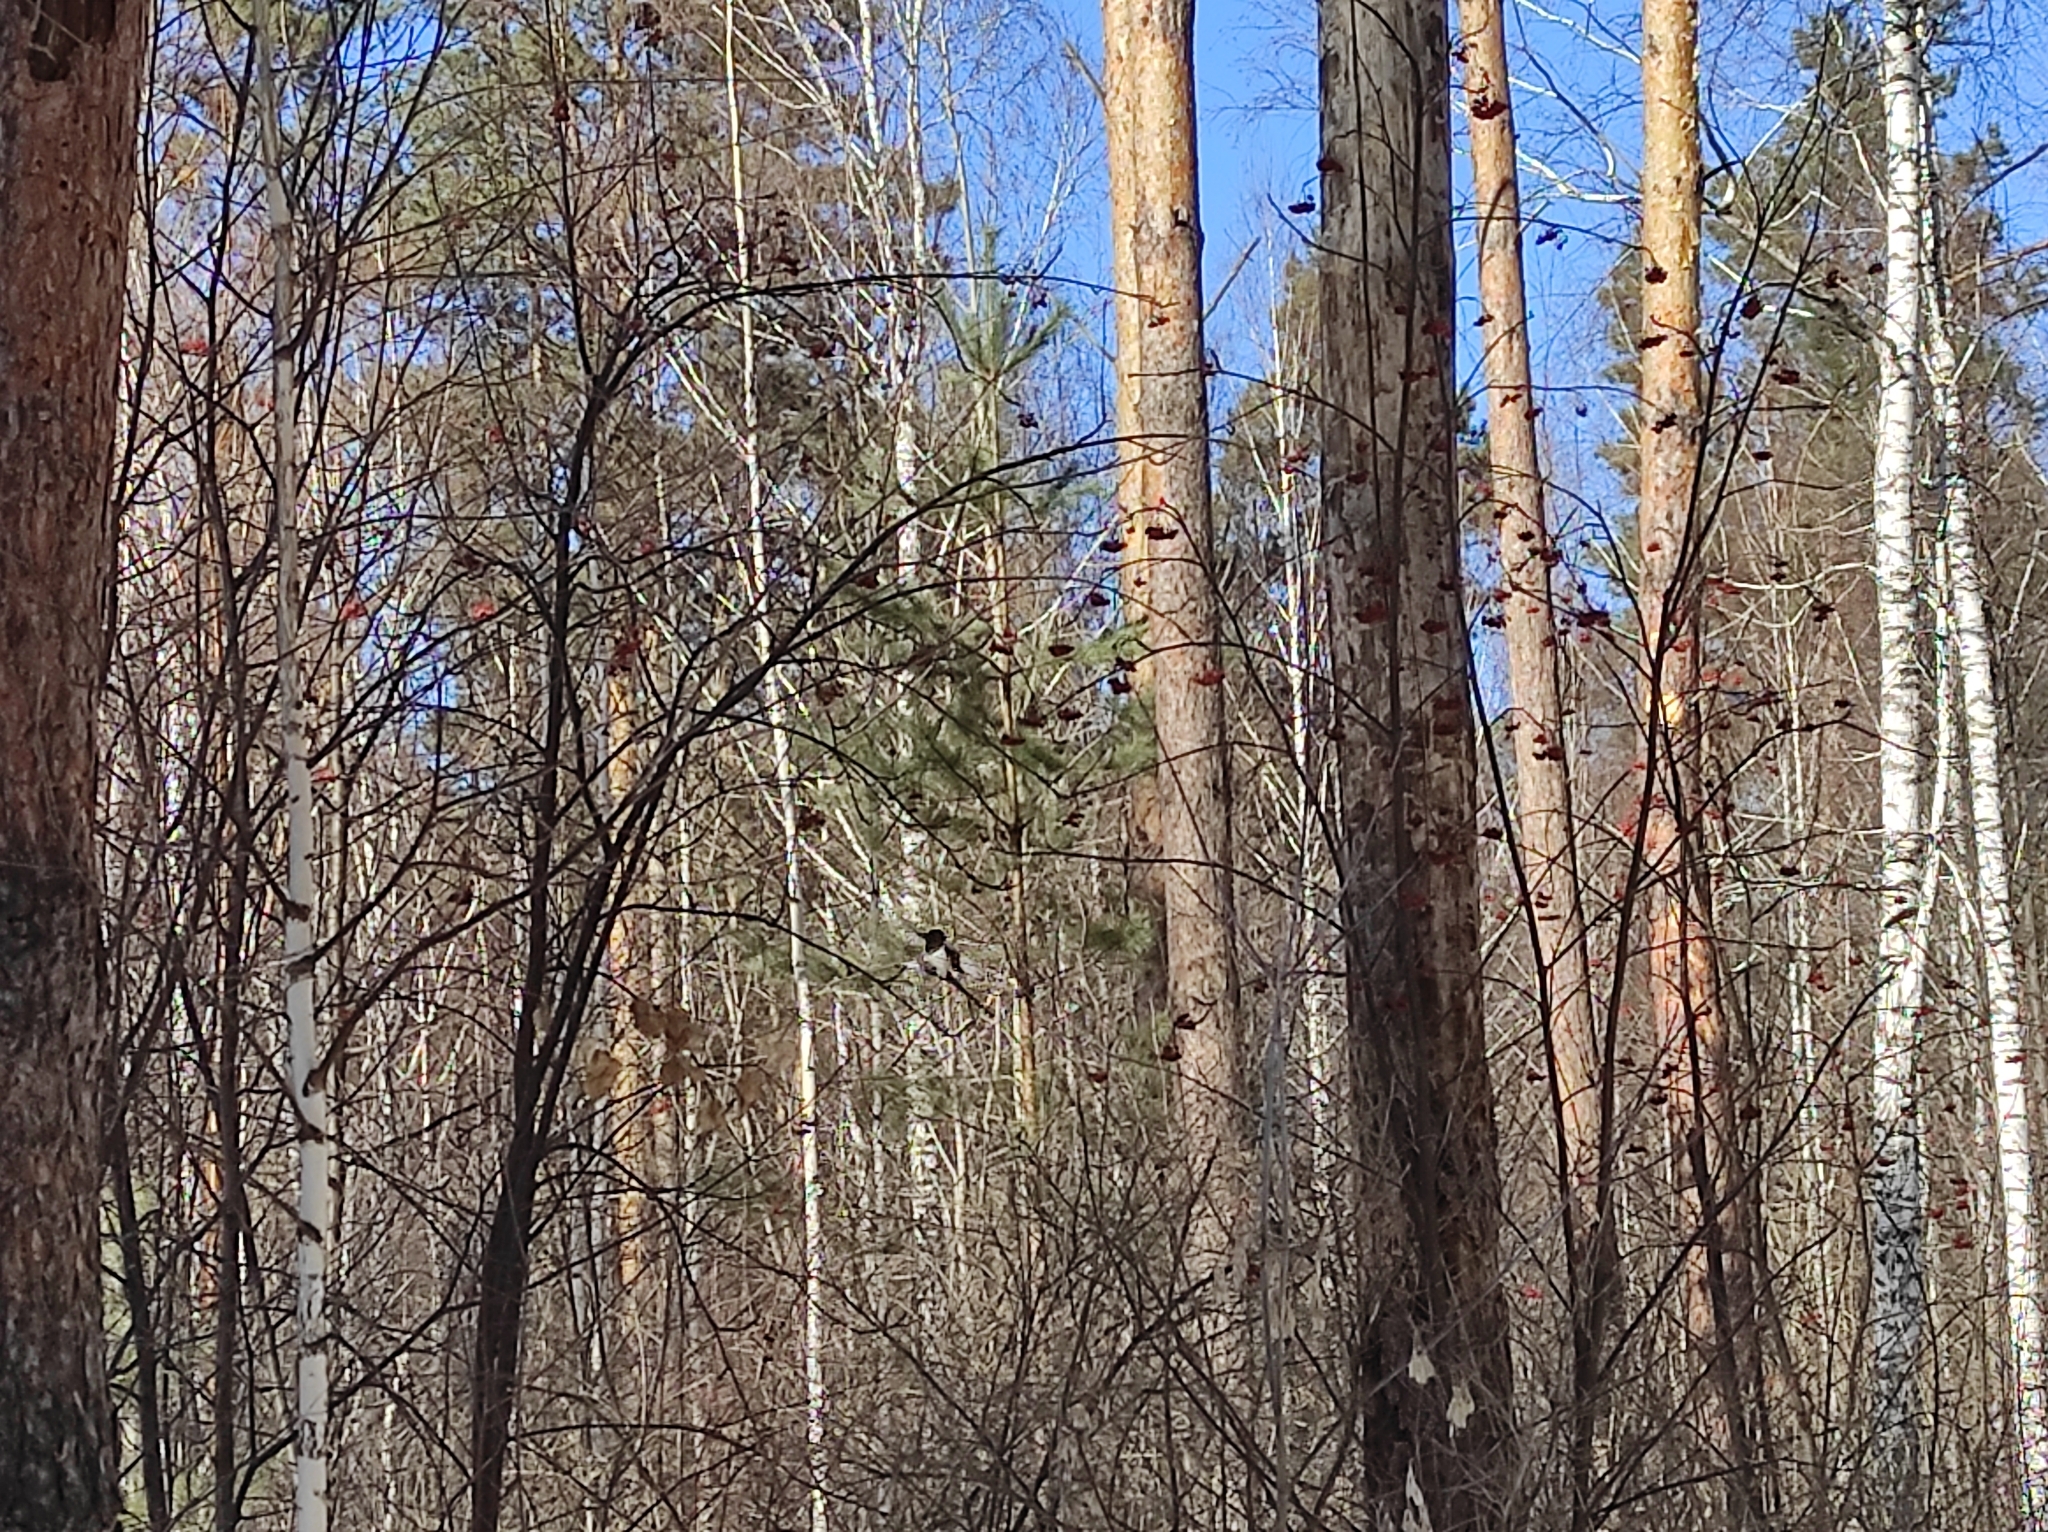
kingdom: Animalia
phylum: Chordata
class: Aves
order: Passeriformes
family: Corvidae
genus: Pica
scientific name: Pica pica
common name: Eurasian magpie
